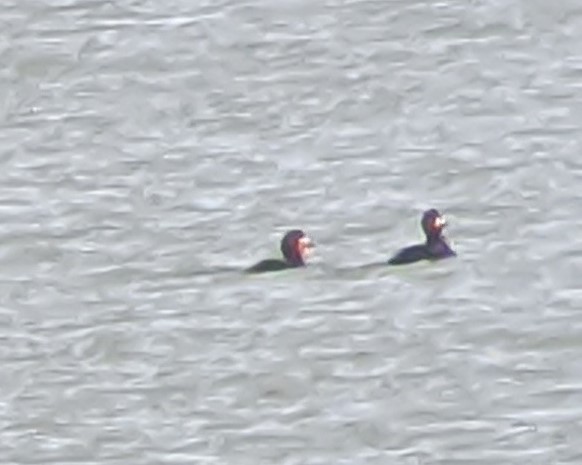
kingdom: Animalia
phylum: Chordata
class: Aves
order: Anseriformes
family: Anatidae
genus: Melanitta
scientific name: Melanitta americana
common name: Black scoter
